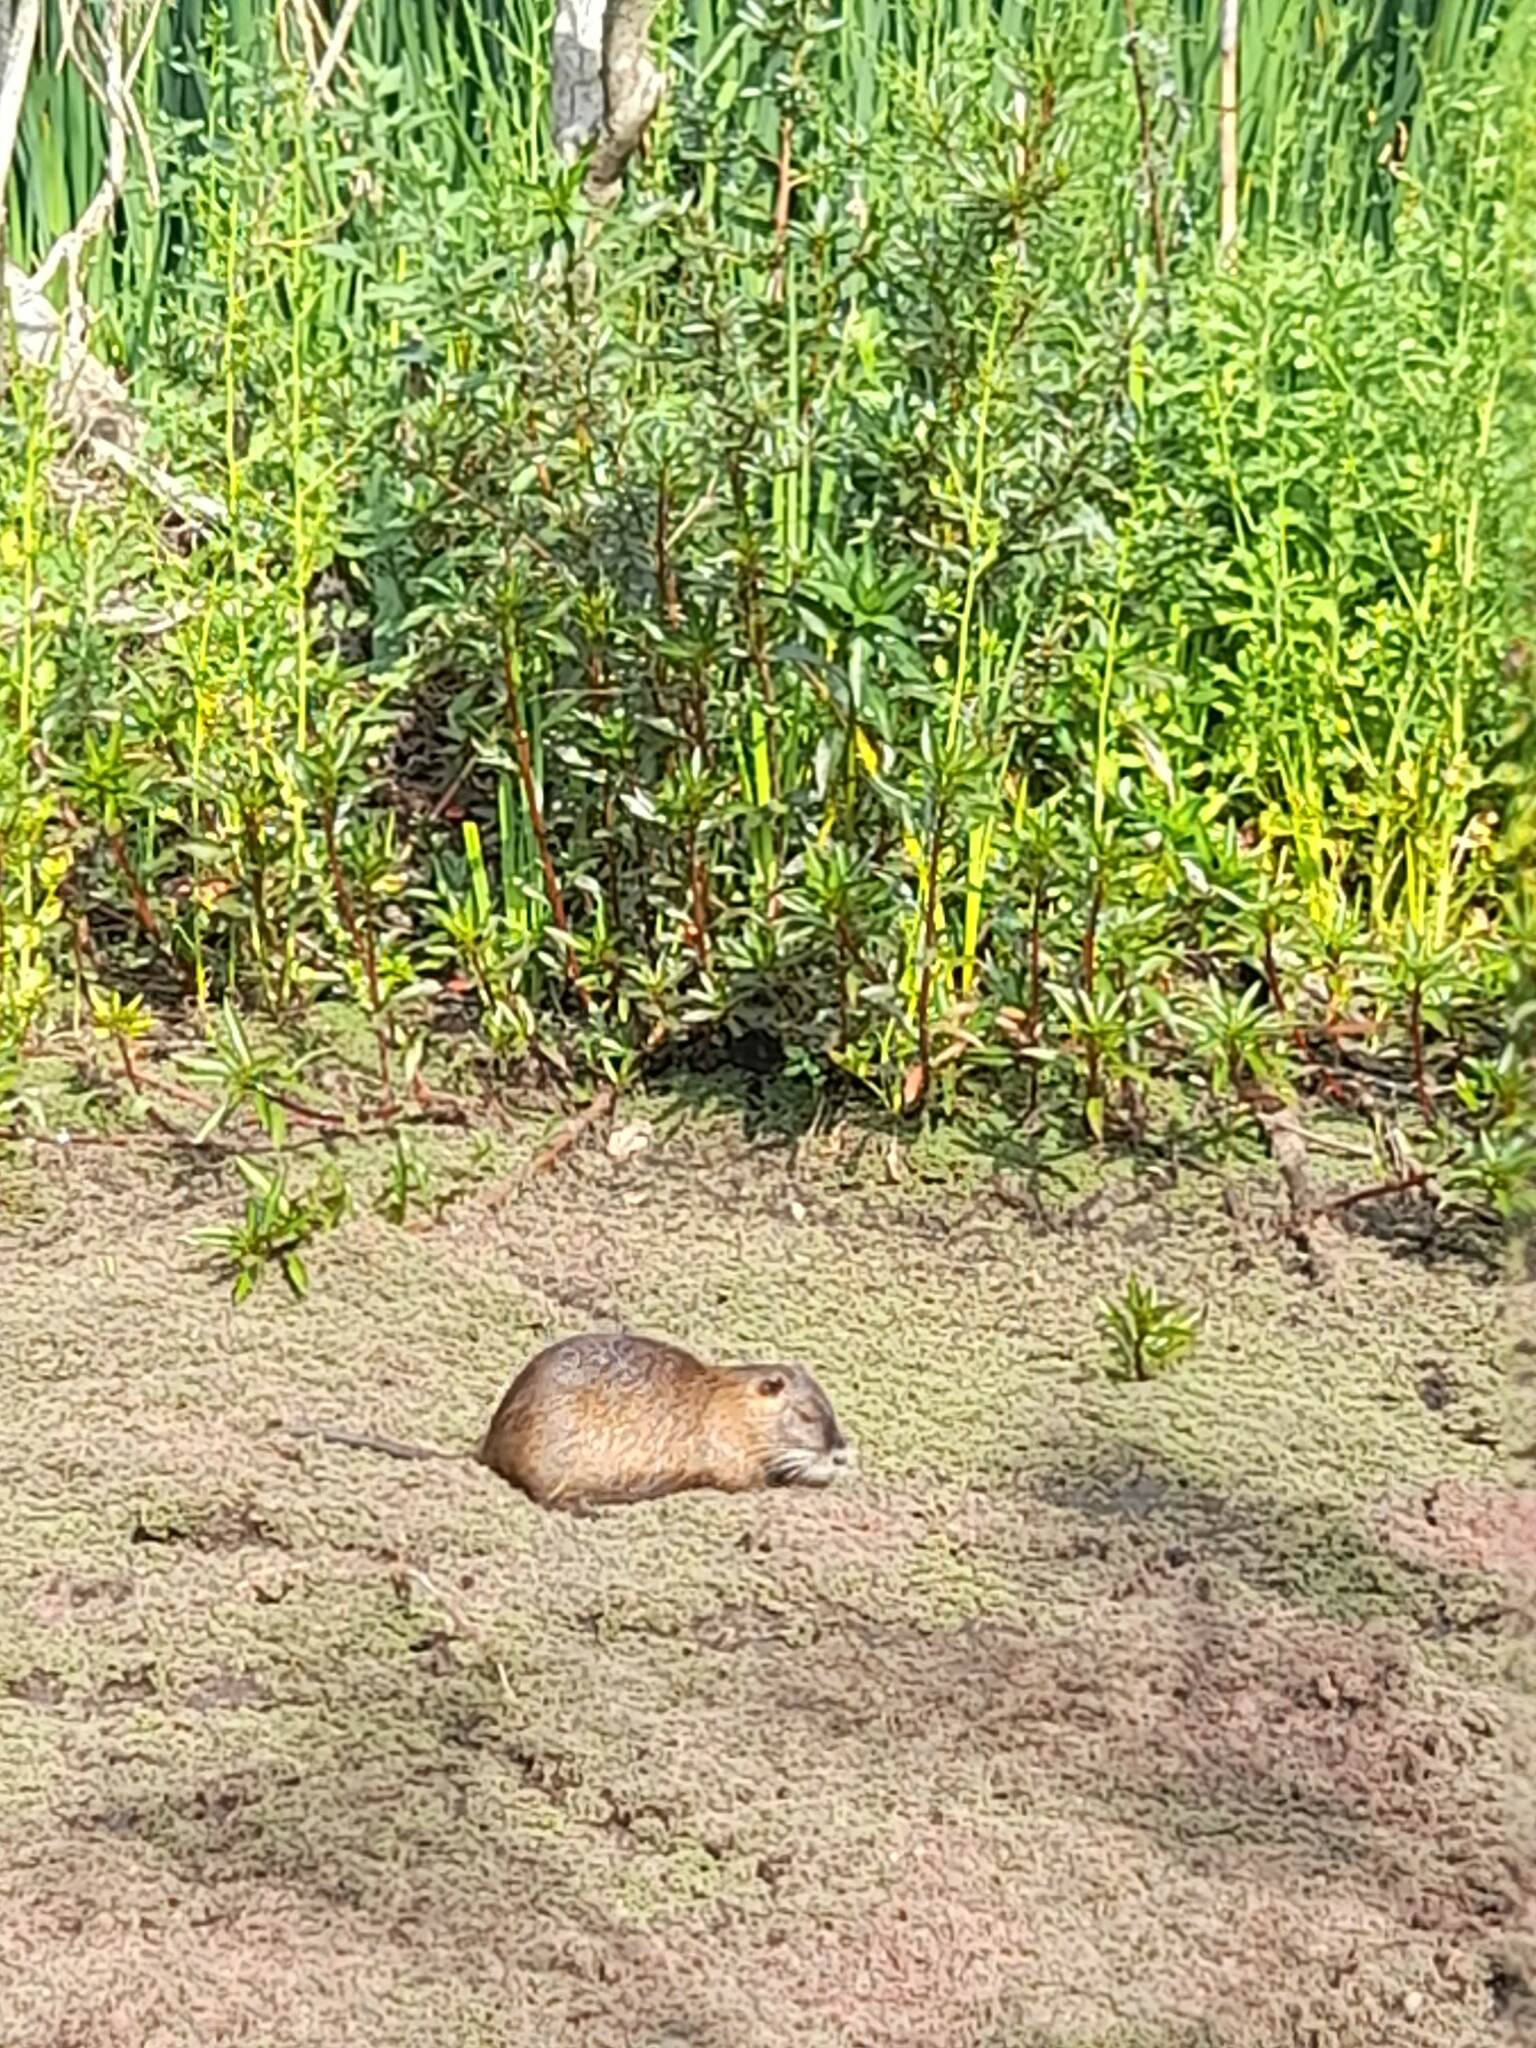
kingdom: Animalia
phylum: Chordata
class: Mammalia
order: Rodentia
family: Myocastoridae
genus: Myocastor
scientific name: Myocastor coypus
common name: Coypu
